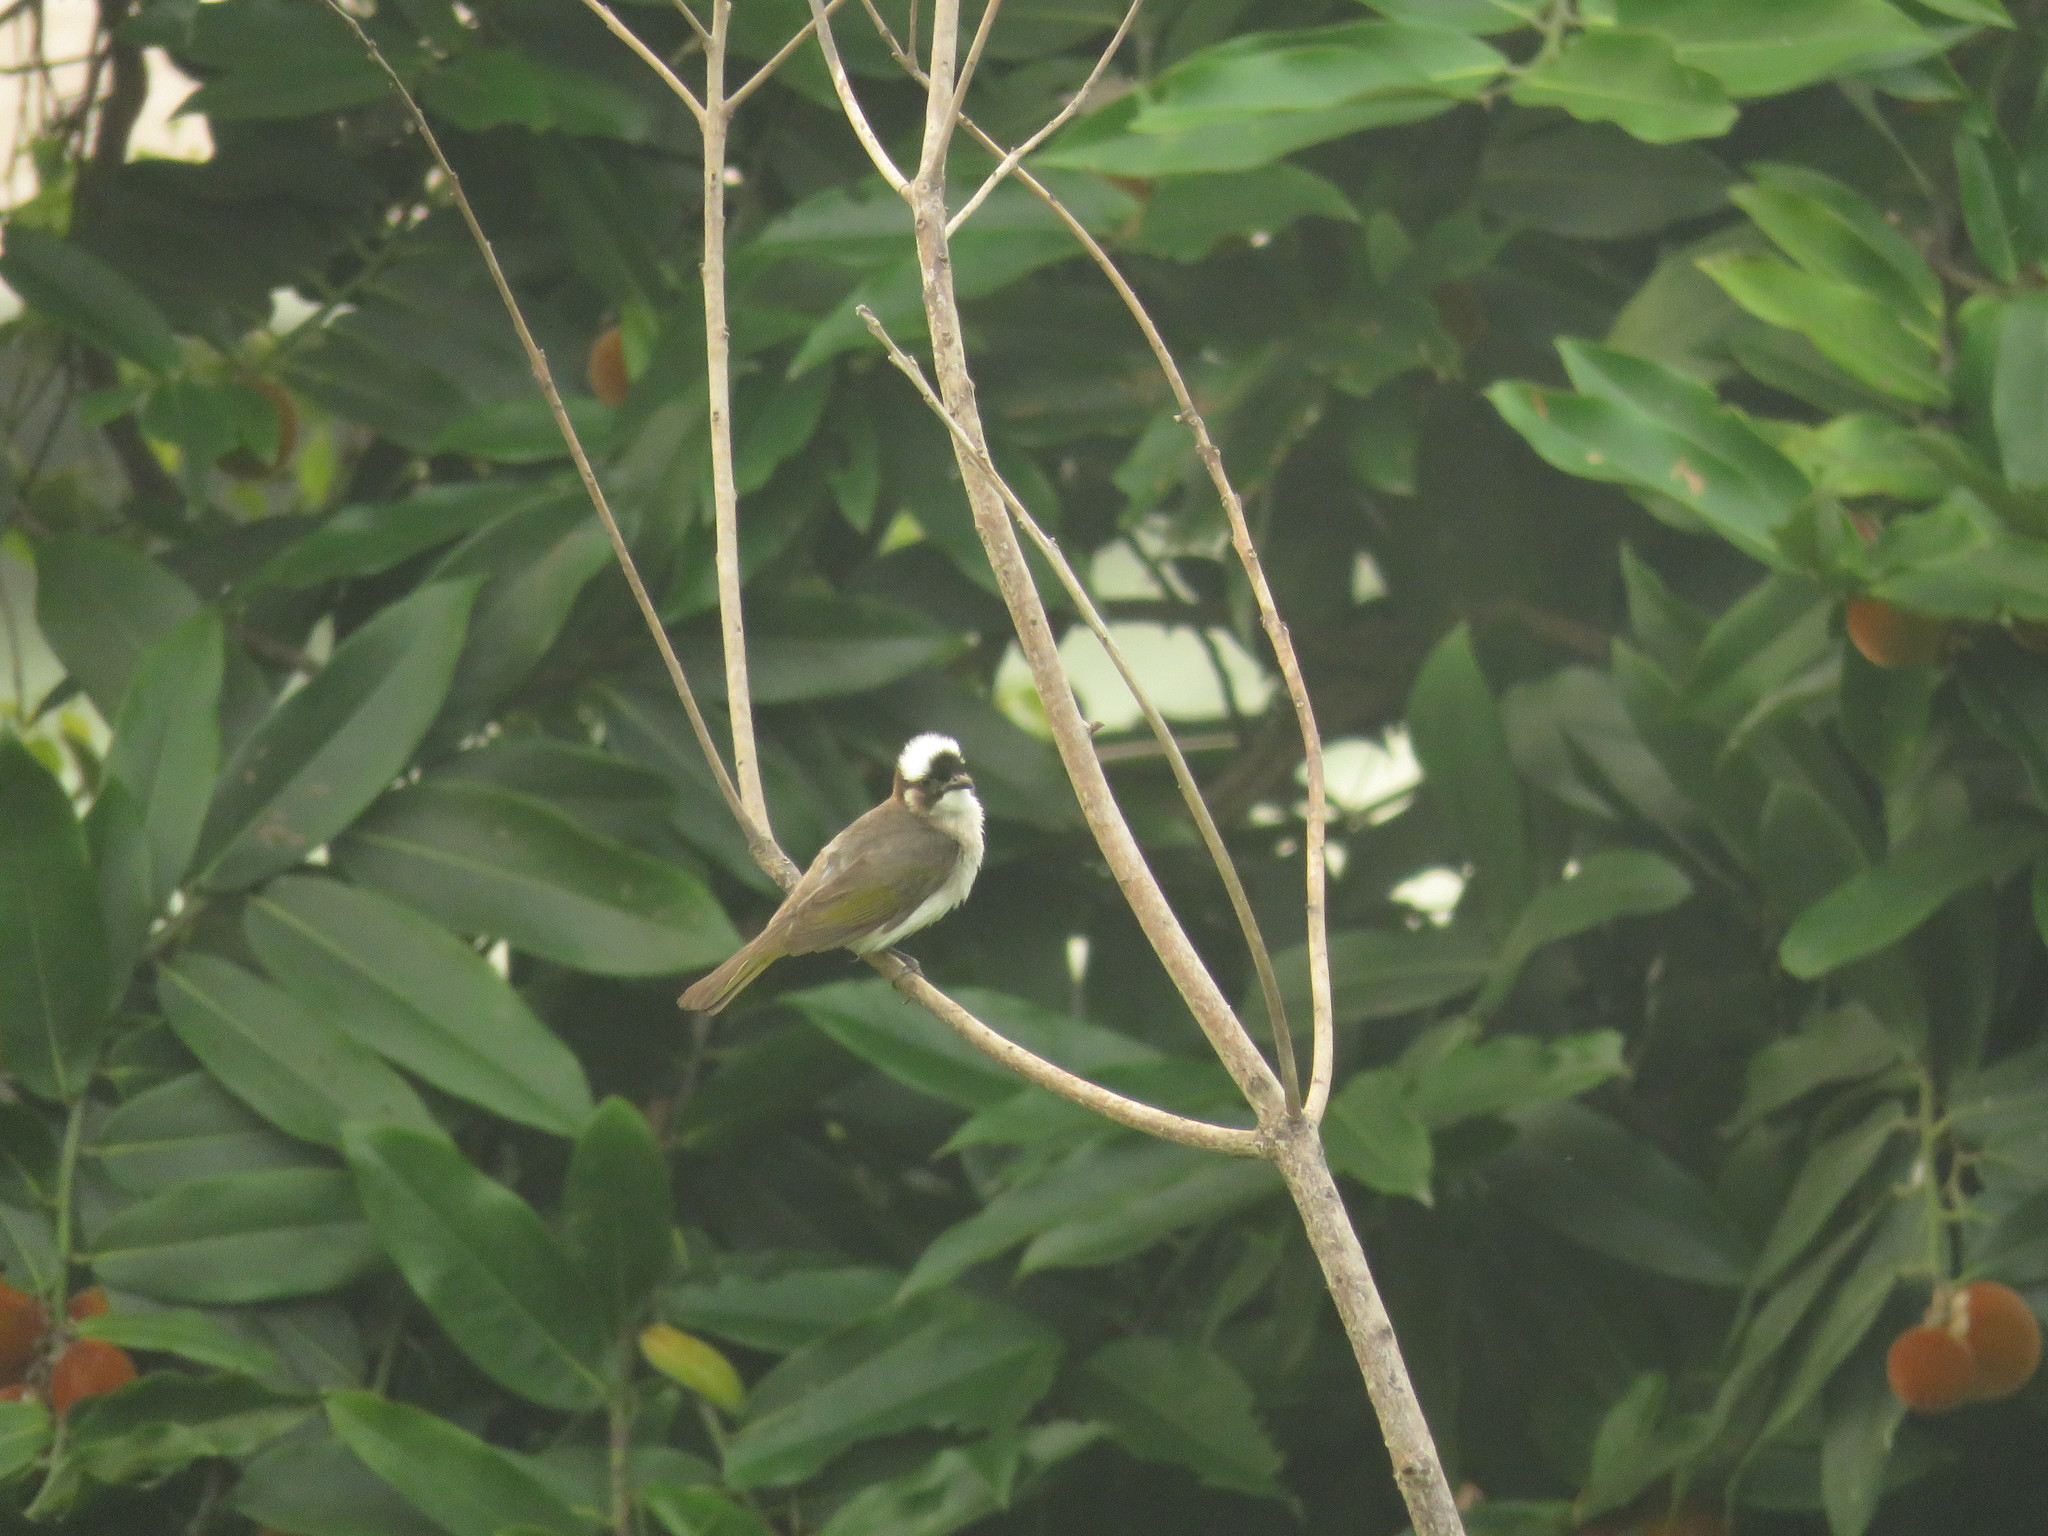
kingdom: Animalia
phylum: Chordata
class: Aves
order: Passeriformes
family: Pycnonotidae
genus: Pycnonotus
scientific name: Pycnonotus sinensis
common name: Light-vented bulbul
